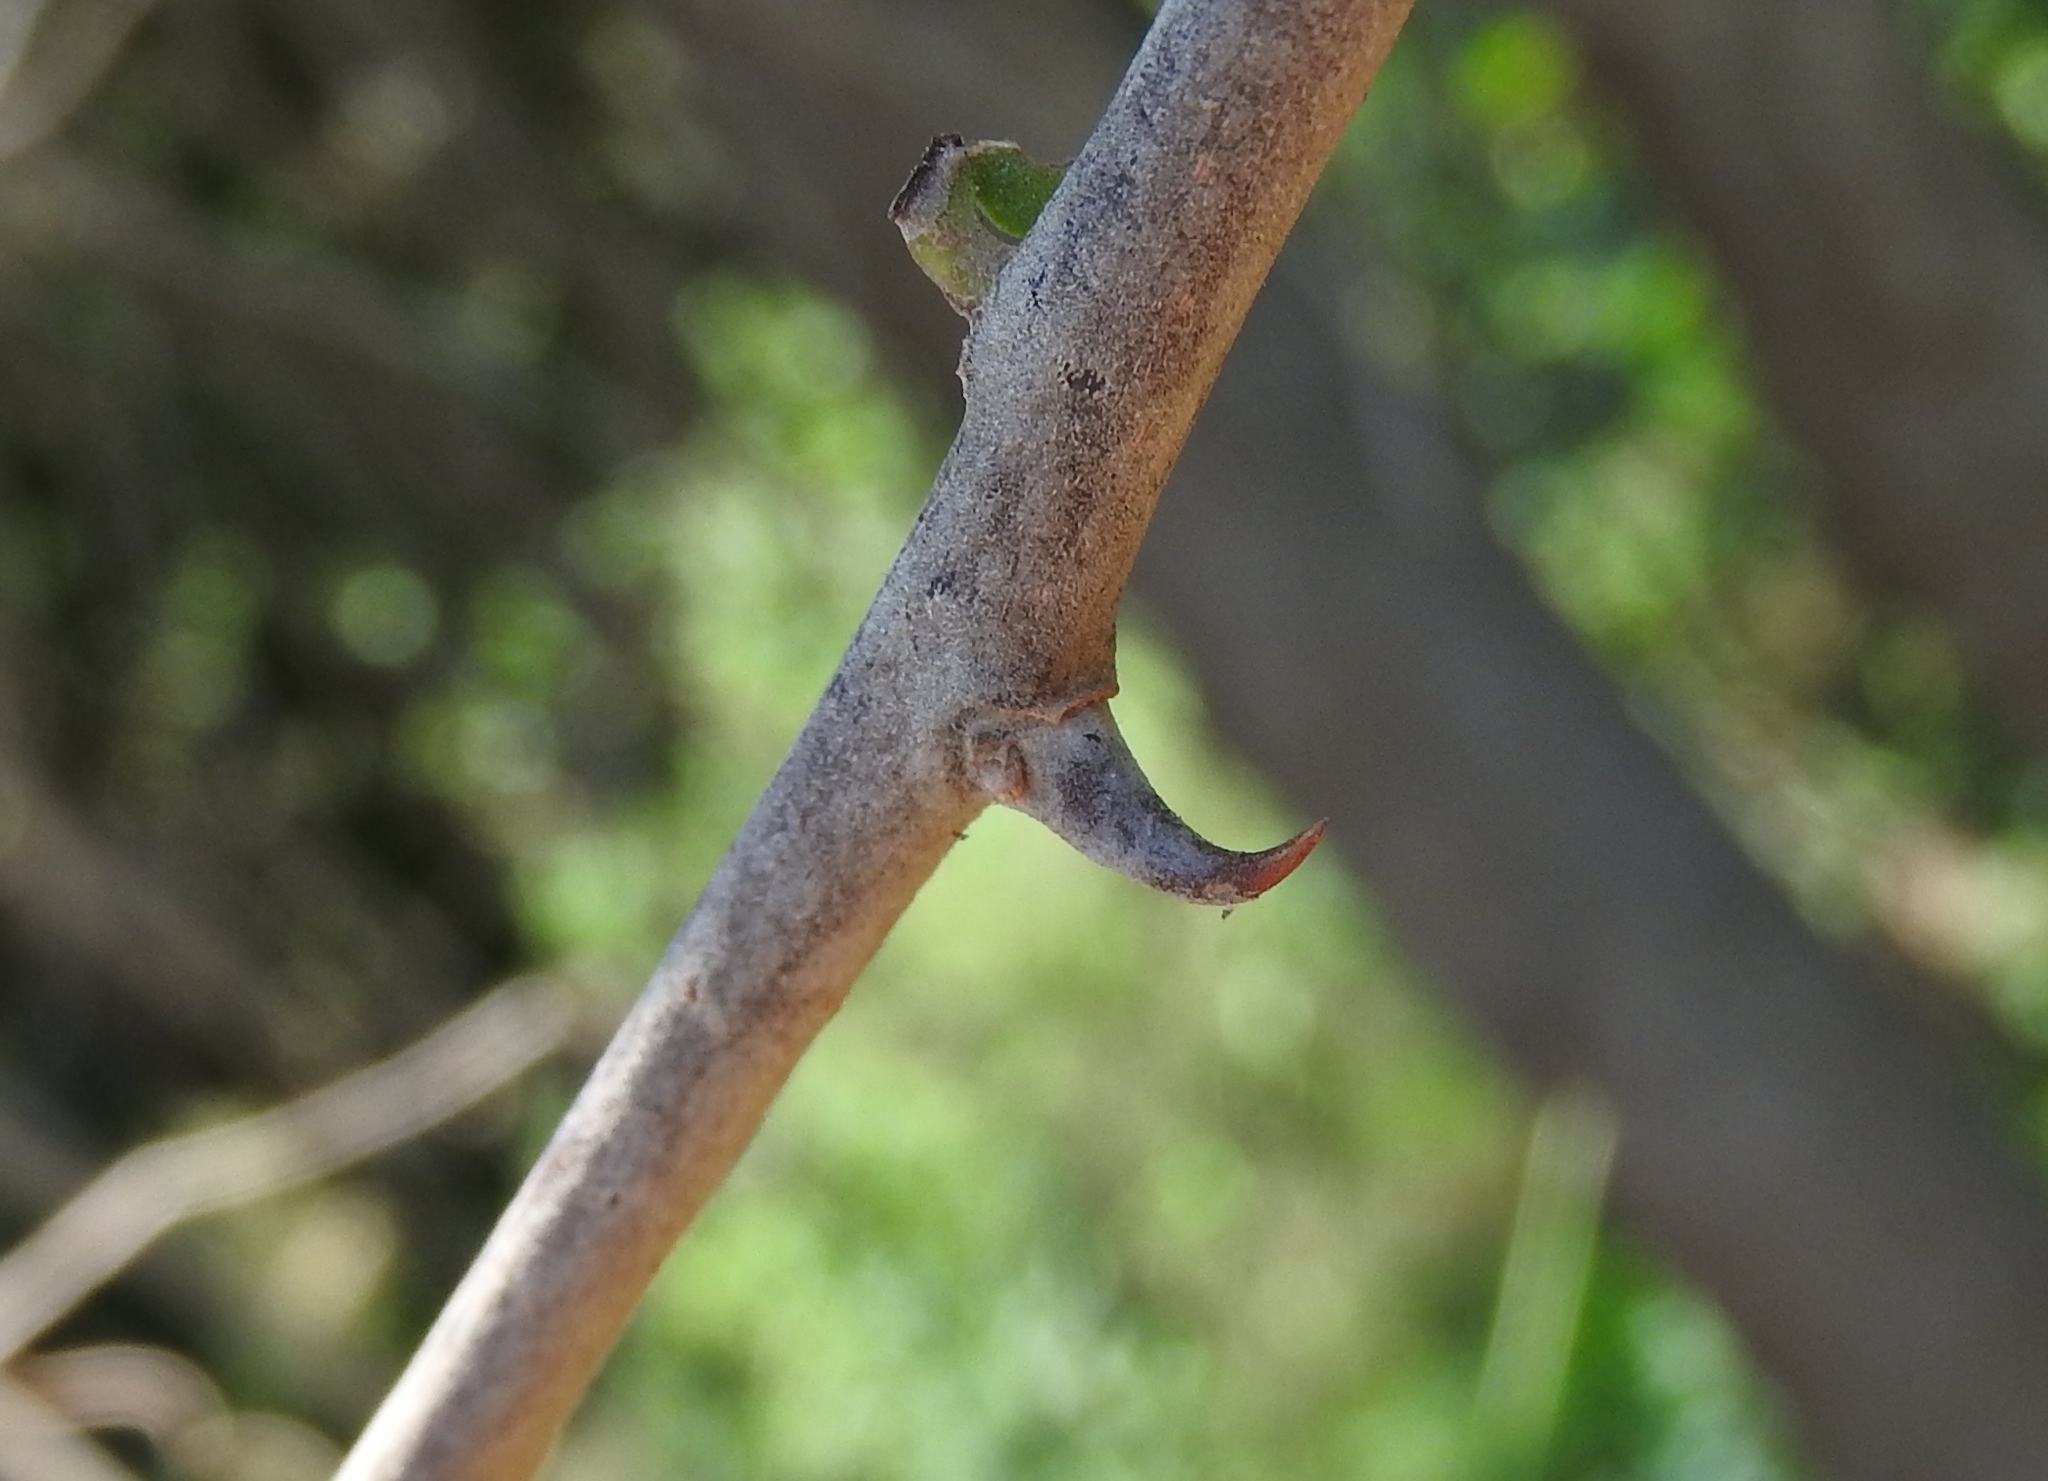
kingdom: Plantae
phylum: Tracheophyta
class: Magnoliopsida
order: Caryophyllales
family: Nyctaginaceae
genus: Pisonia
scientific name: Pisonia capitata
